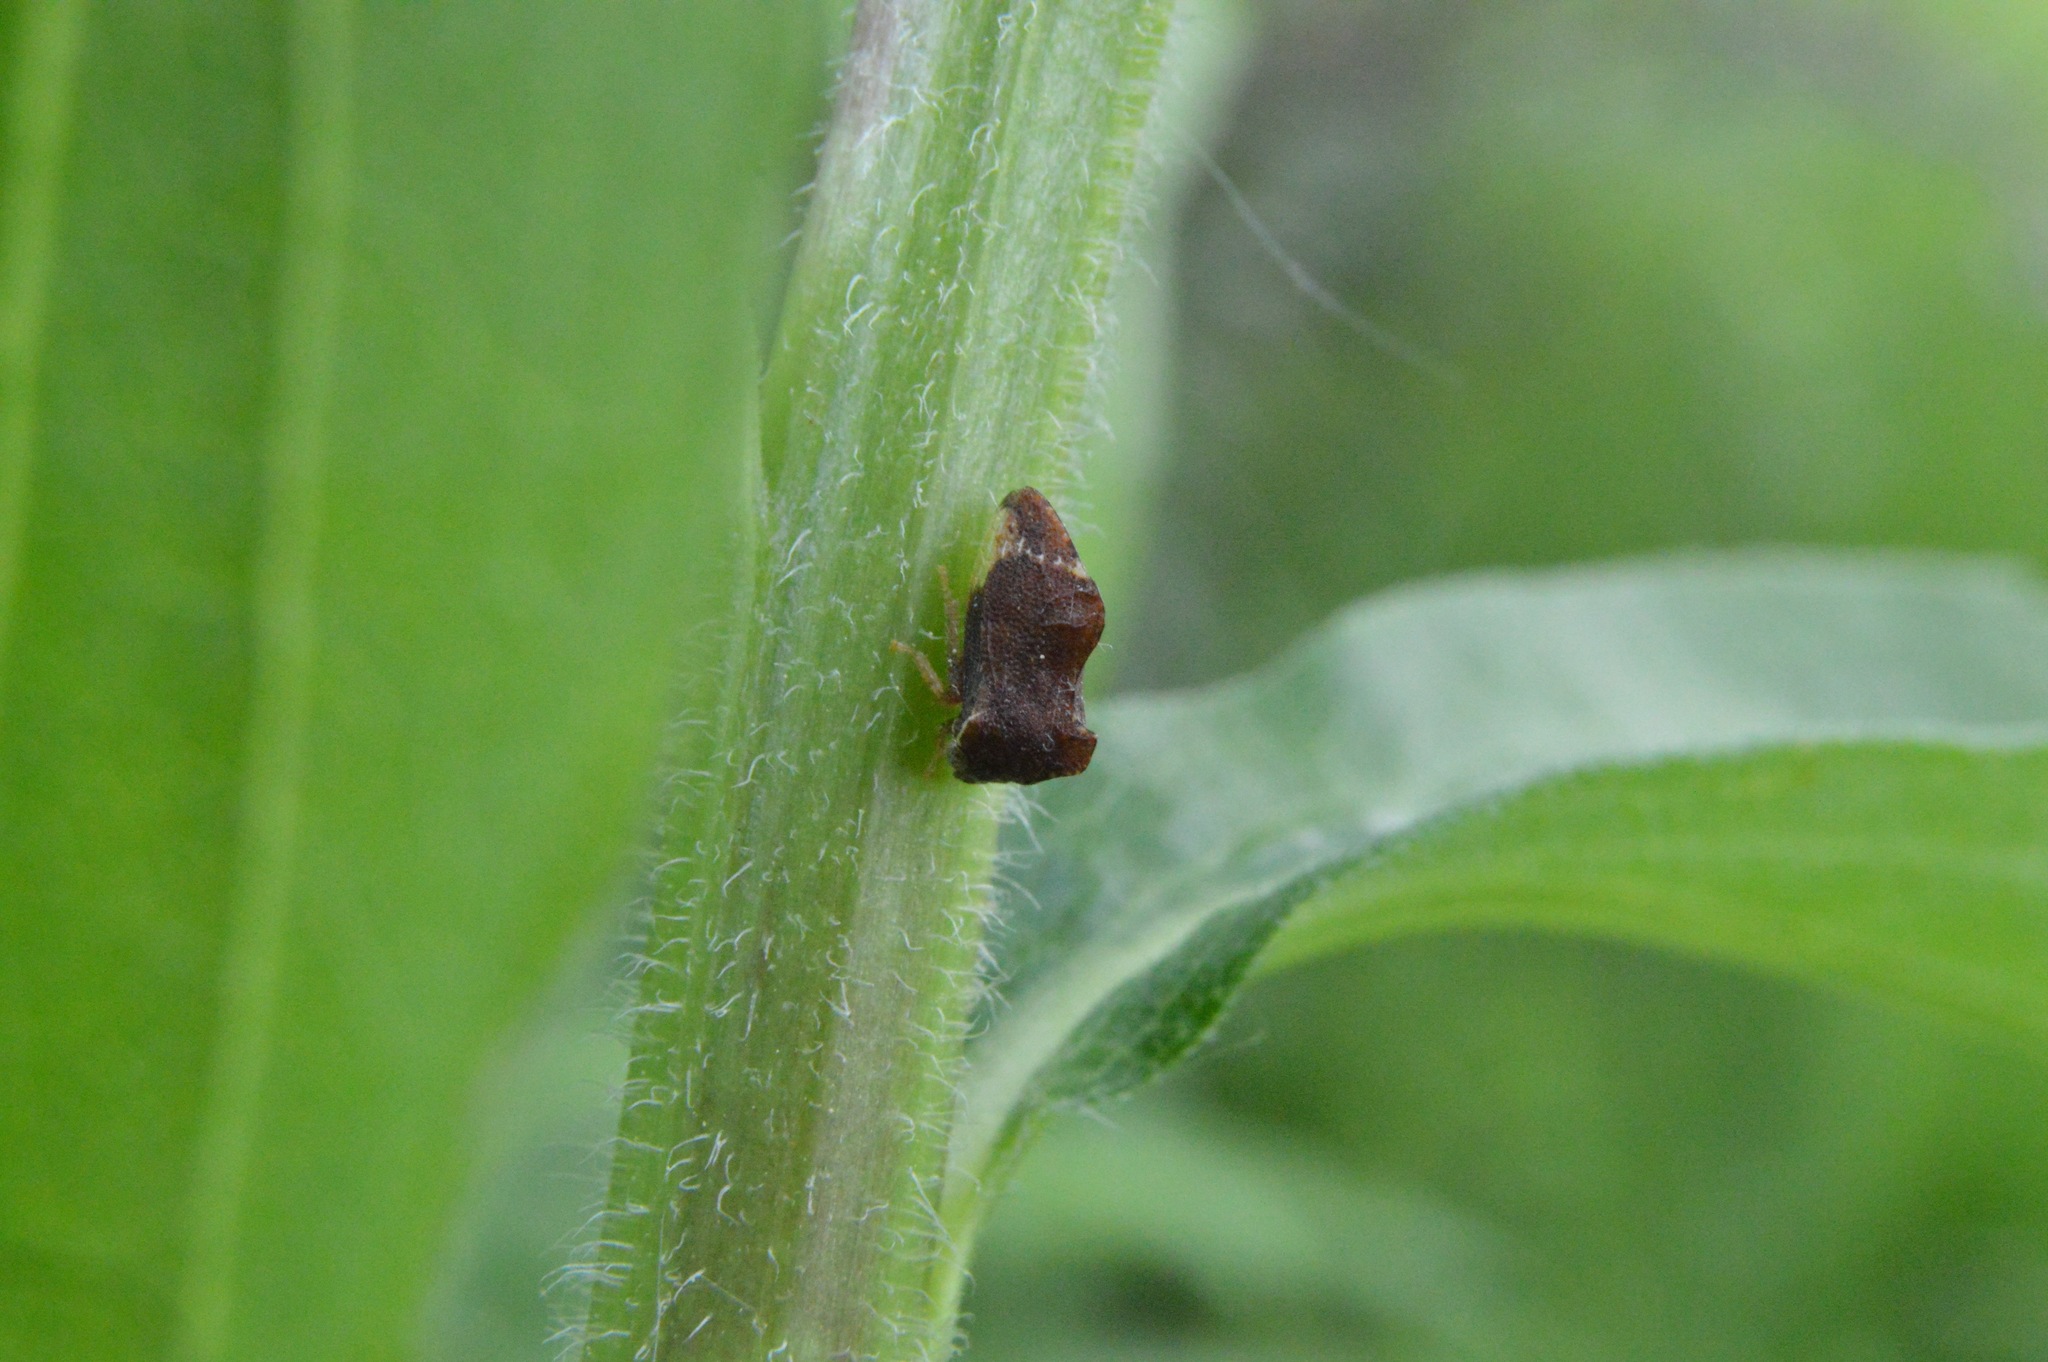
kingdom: Animalia
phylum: Arthropoda
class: Insecta
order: Hemiptera
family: Membracidae
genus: Entylia
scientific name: Entylia carinata
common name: Keeled treehopper
